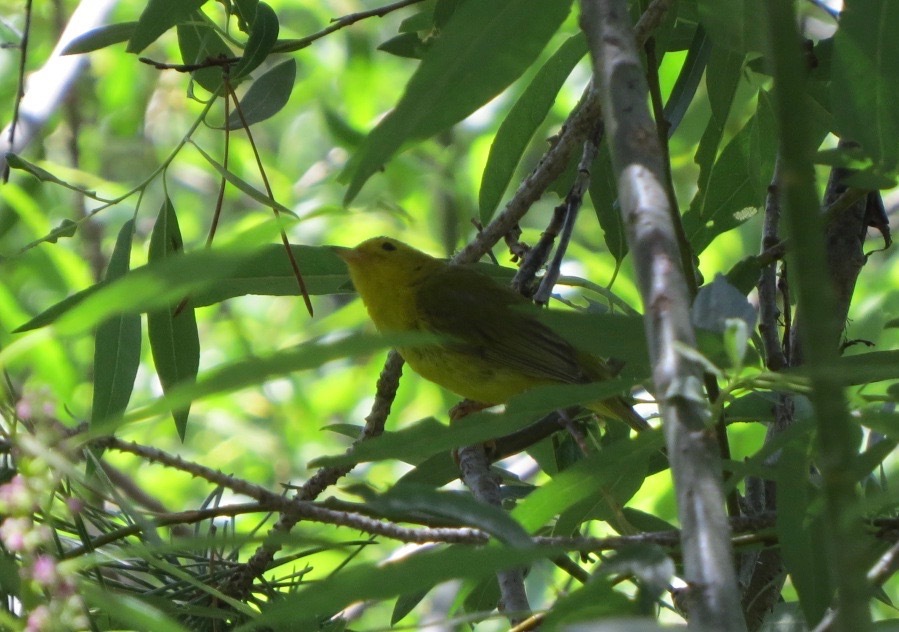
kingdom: Animalia
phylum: Chordata
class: Aves
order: Passeriformes
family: Parulidae
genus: Cardellina
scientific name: Cardellina pusilla
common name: Wilson's warbler
